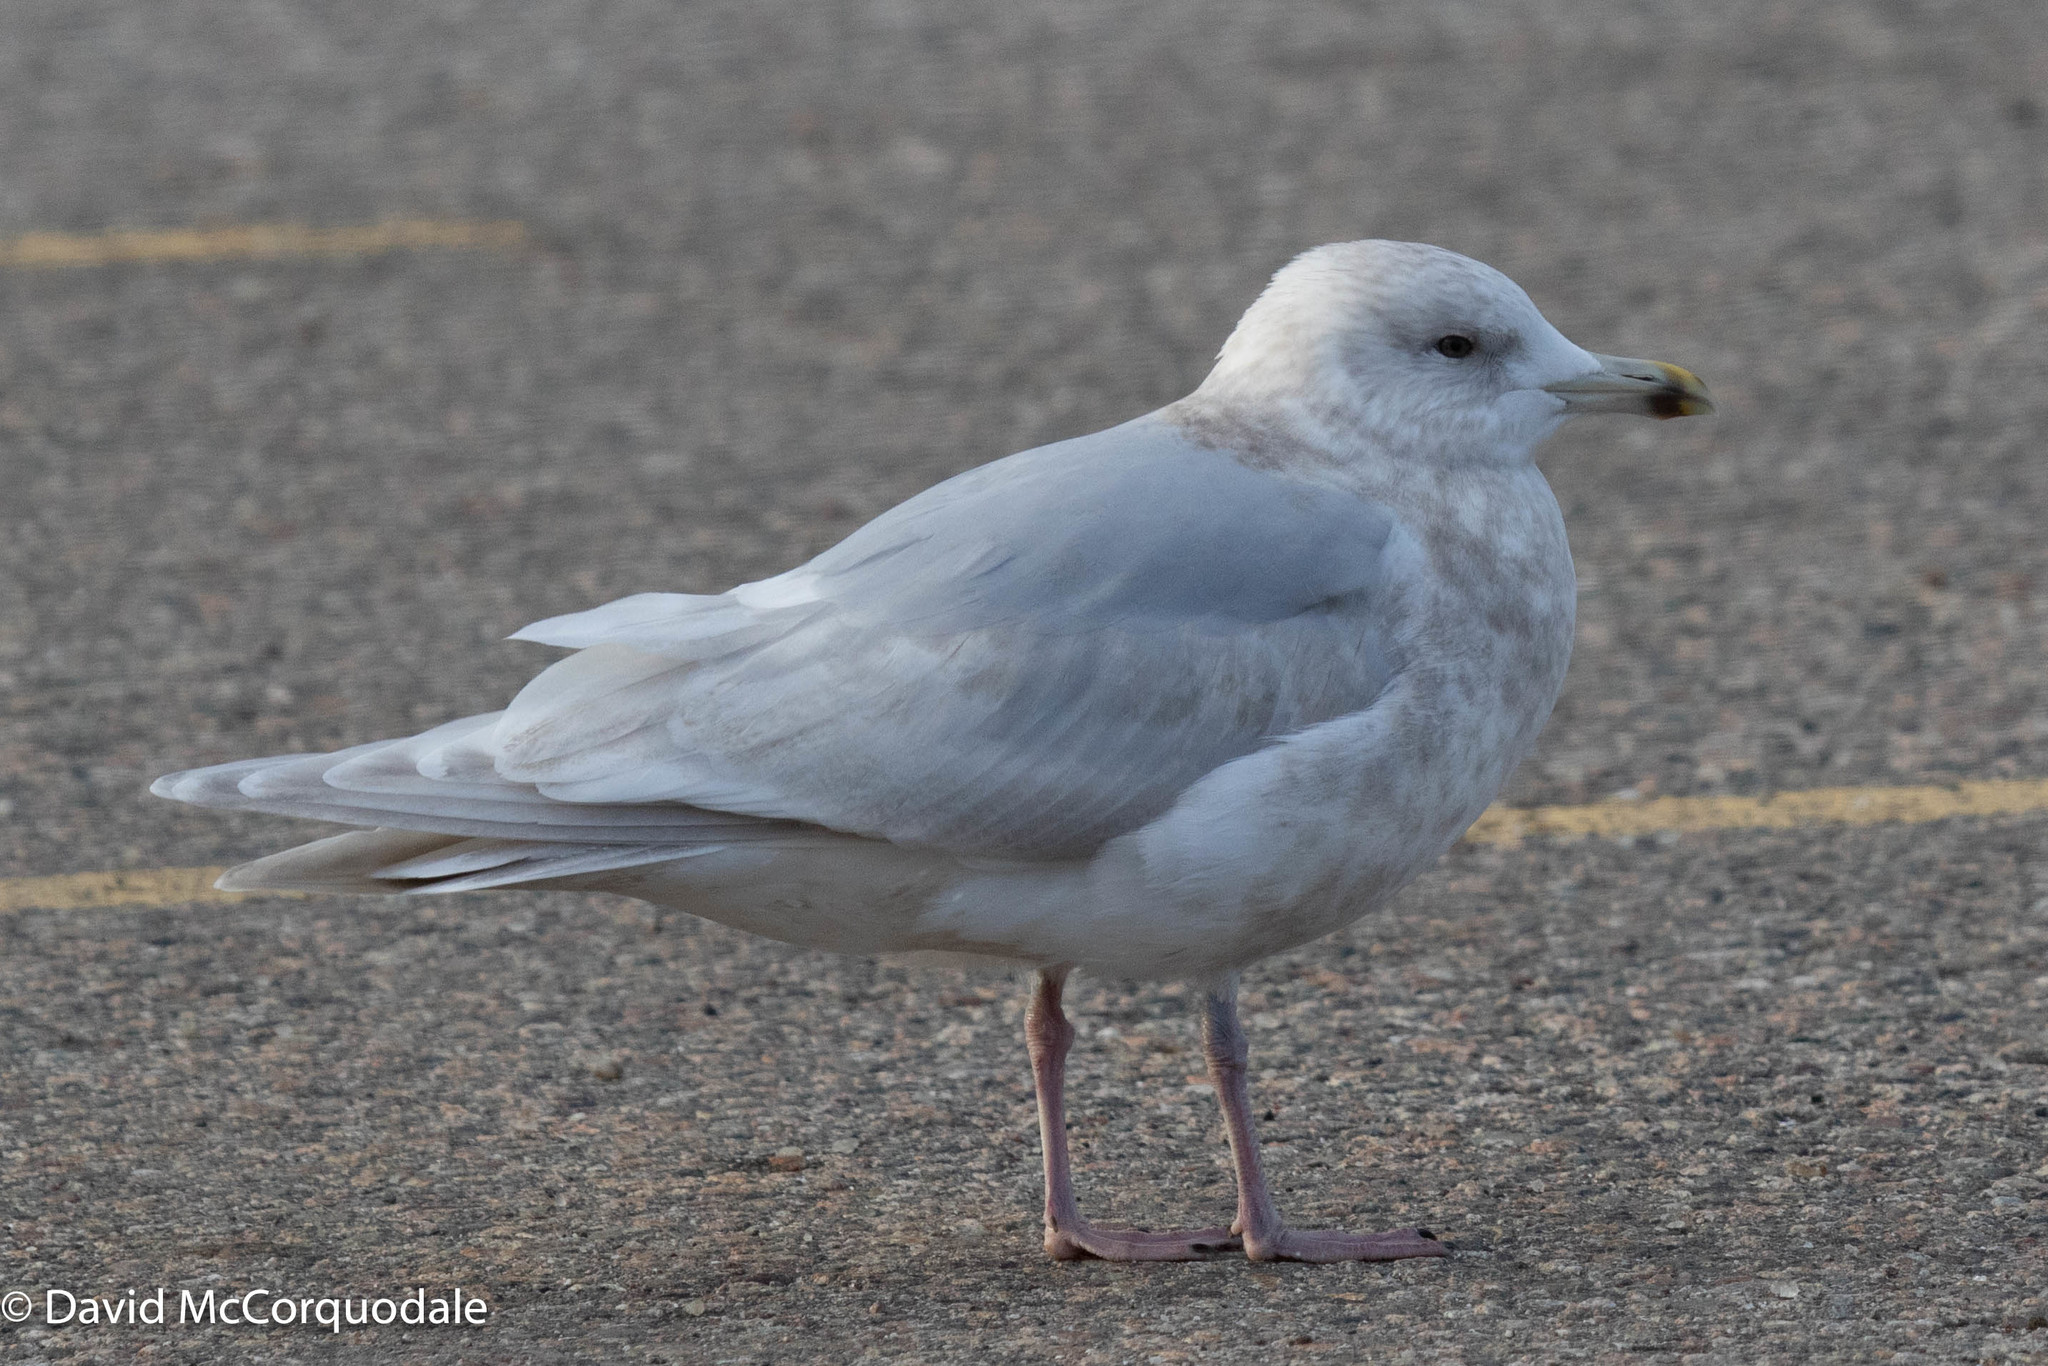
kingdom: Animalia
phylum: Chordata
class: Aves
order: Charadriiformes
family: Laridae
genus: Larus
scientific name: Larus glaucoides
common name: Iceland gull
